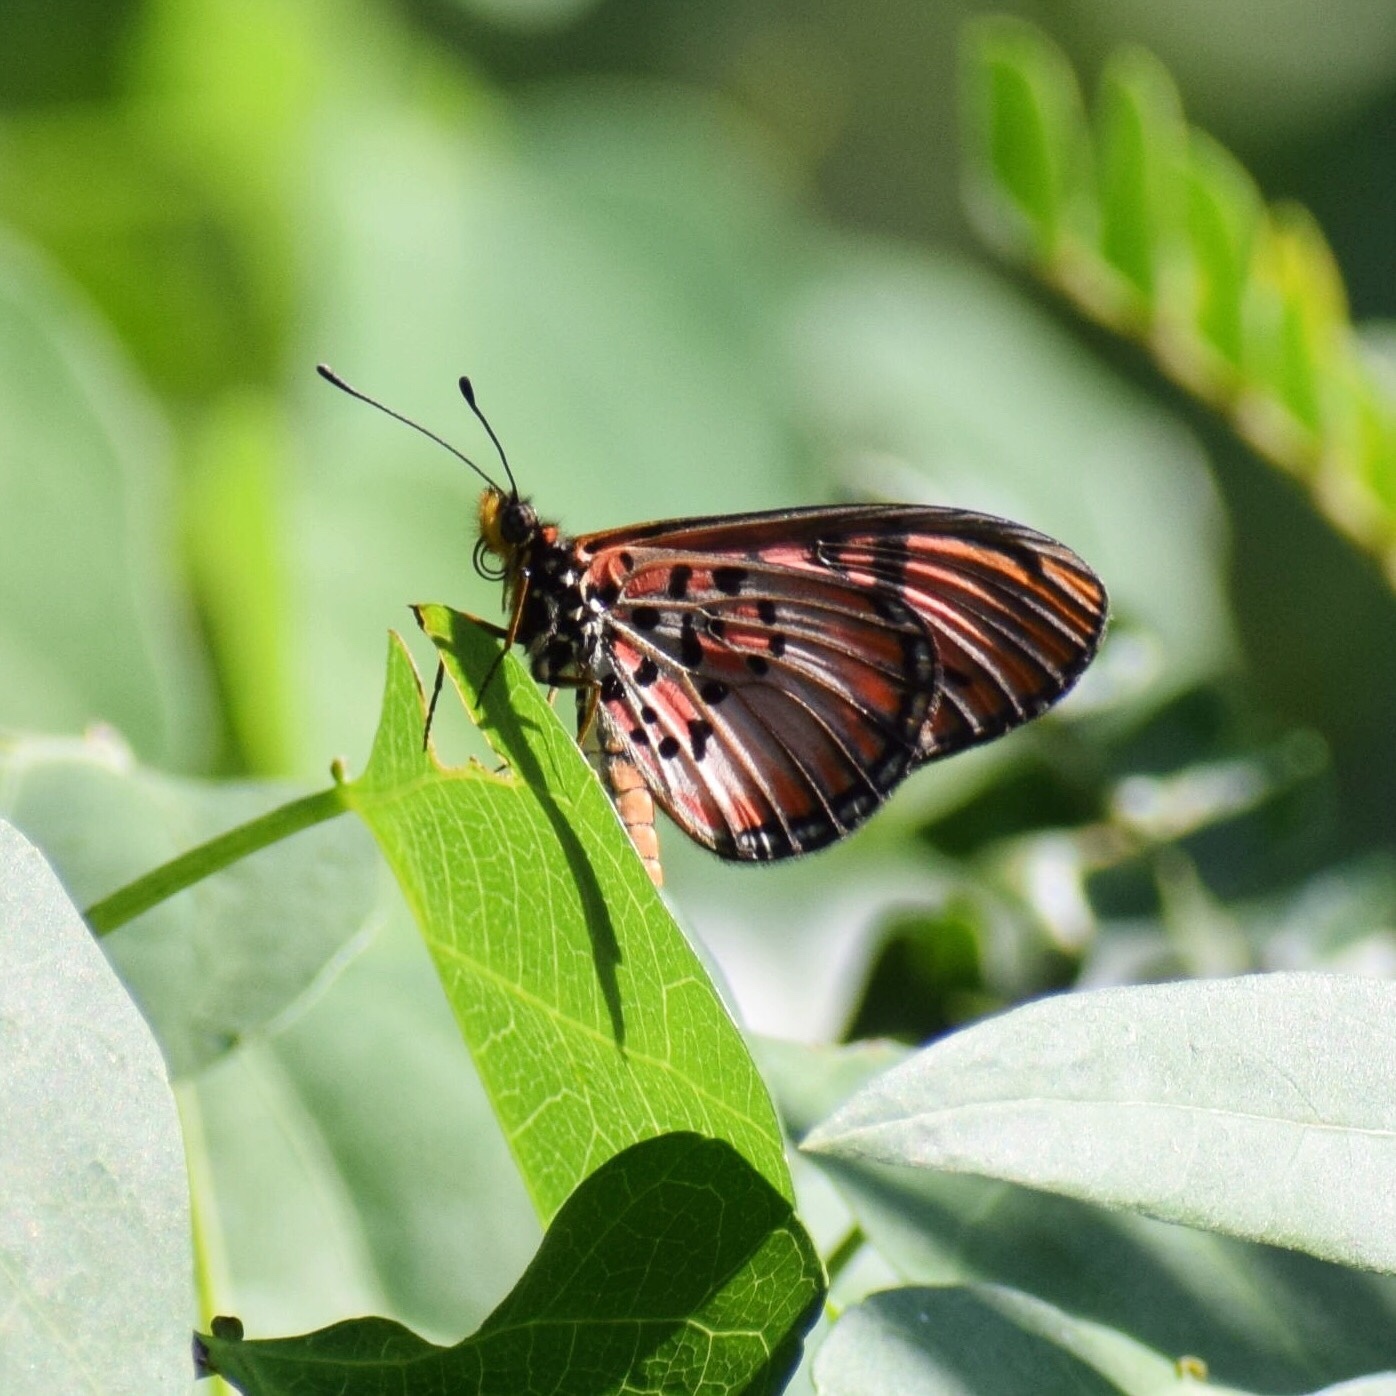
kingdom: Animalia
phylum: Arthropoda
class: Insecta
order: Lepidoptera
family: Nymphalidae
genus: Rubraea
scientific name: Rubraea
